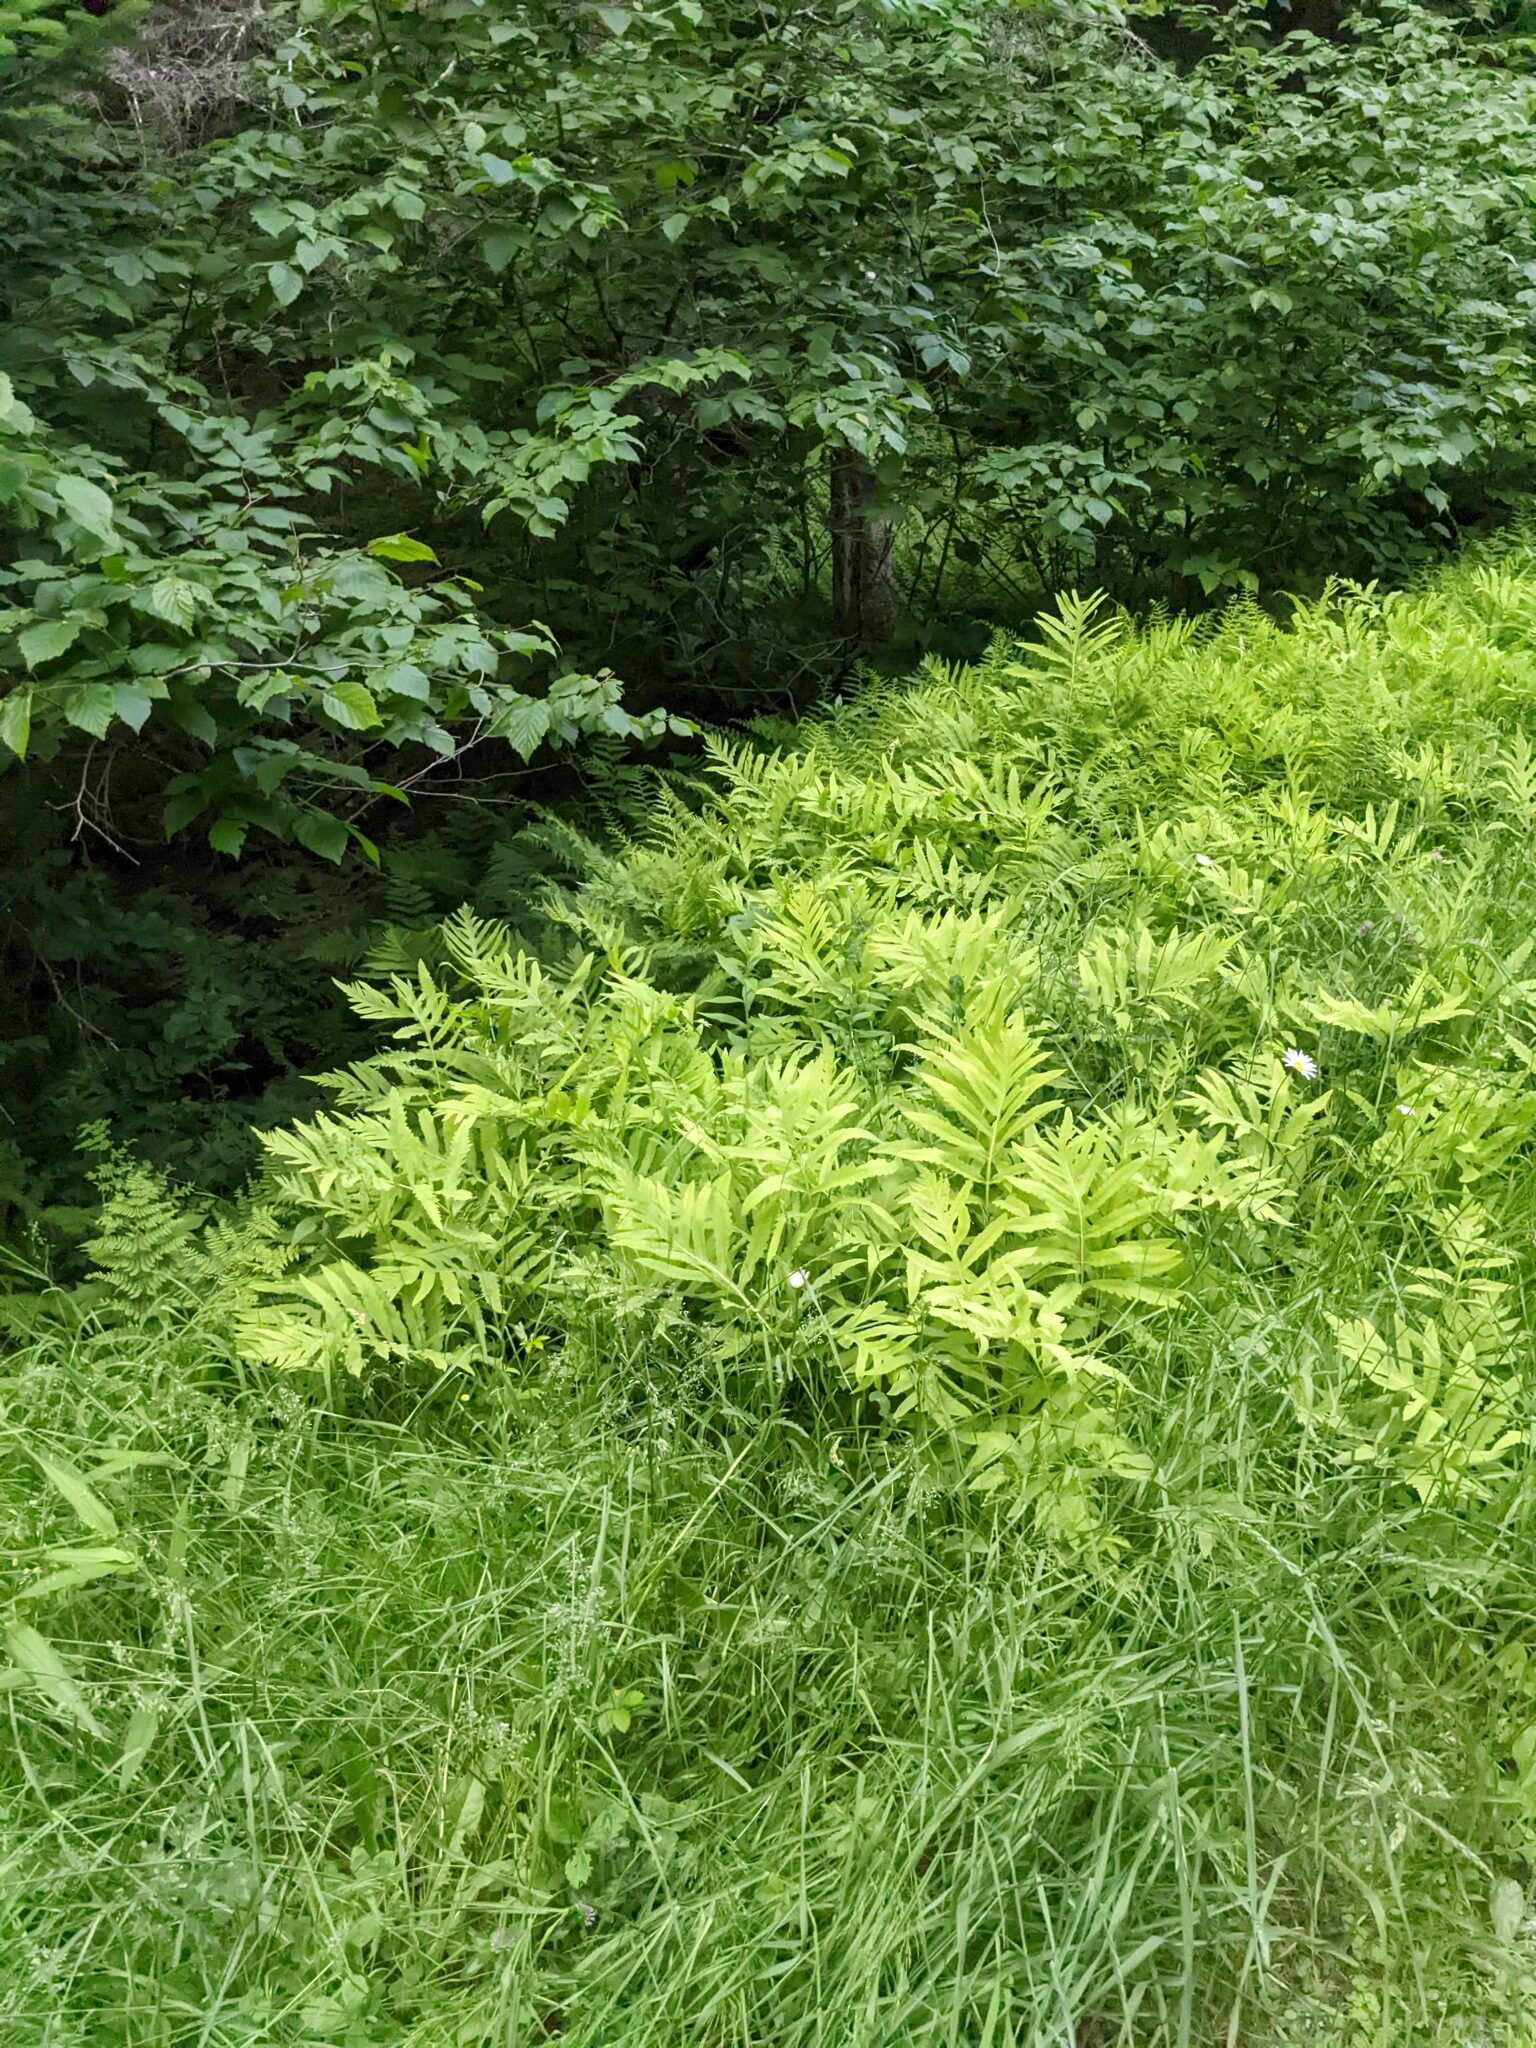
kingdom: Plantae
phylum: Tracheophyta
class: Polypodiopsida
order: Polypodiales
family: Onocleaceae
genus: Onoclea
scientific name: Onoclea sensibilis
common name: Sensitive fern
